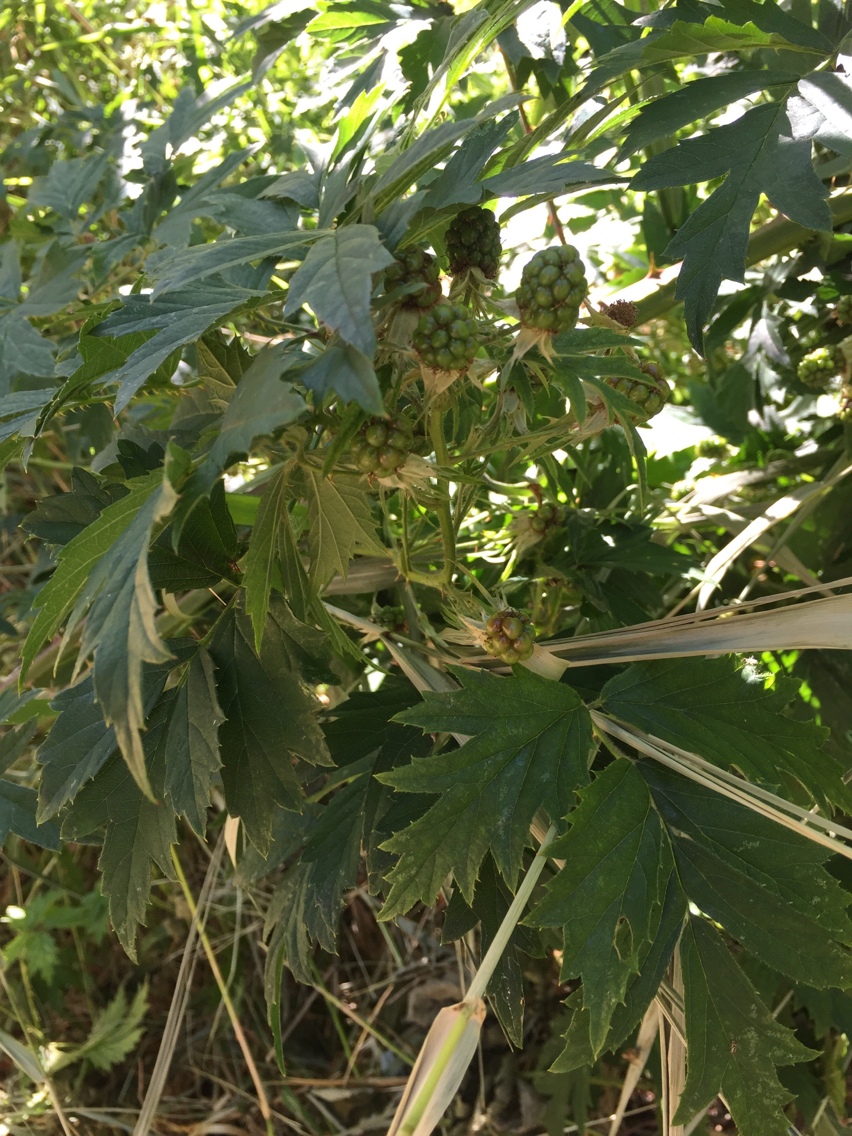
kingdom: Plantae
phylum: Tracheophyta
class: Magnoliopsida
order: Rosales
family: Rosaceae
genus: Rubus
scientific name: Rubus laciniatus
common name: Evergreen blackberry
